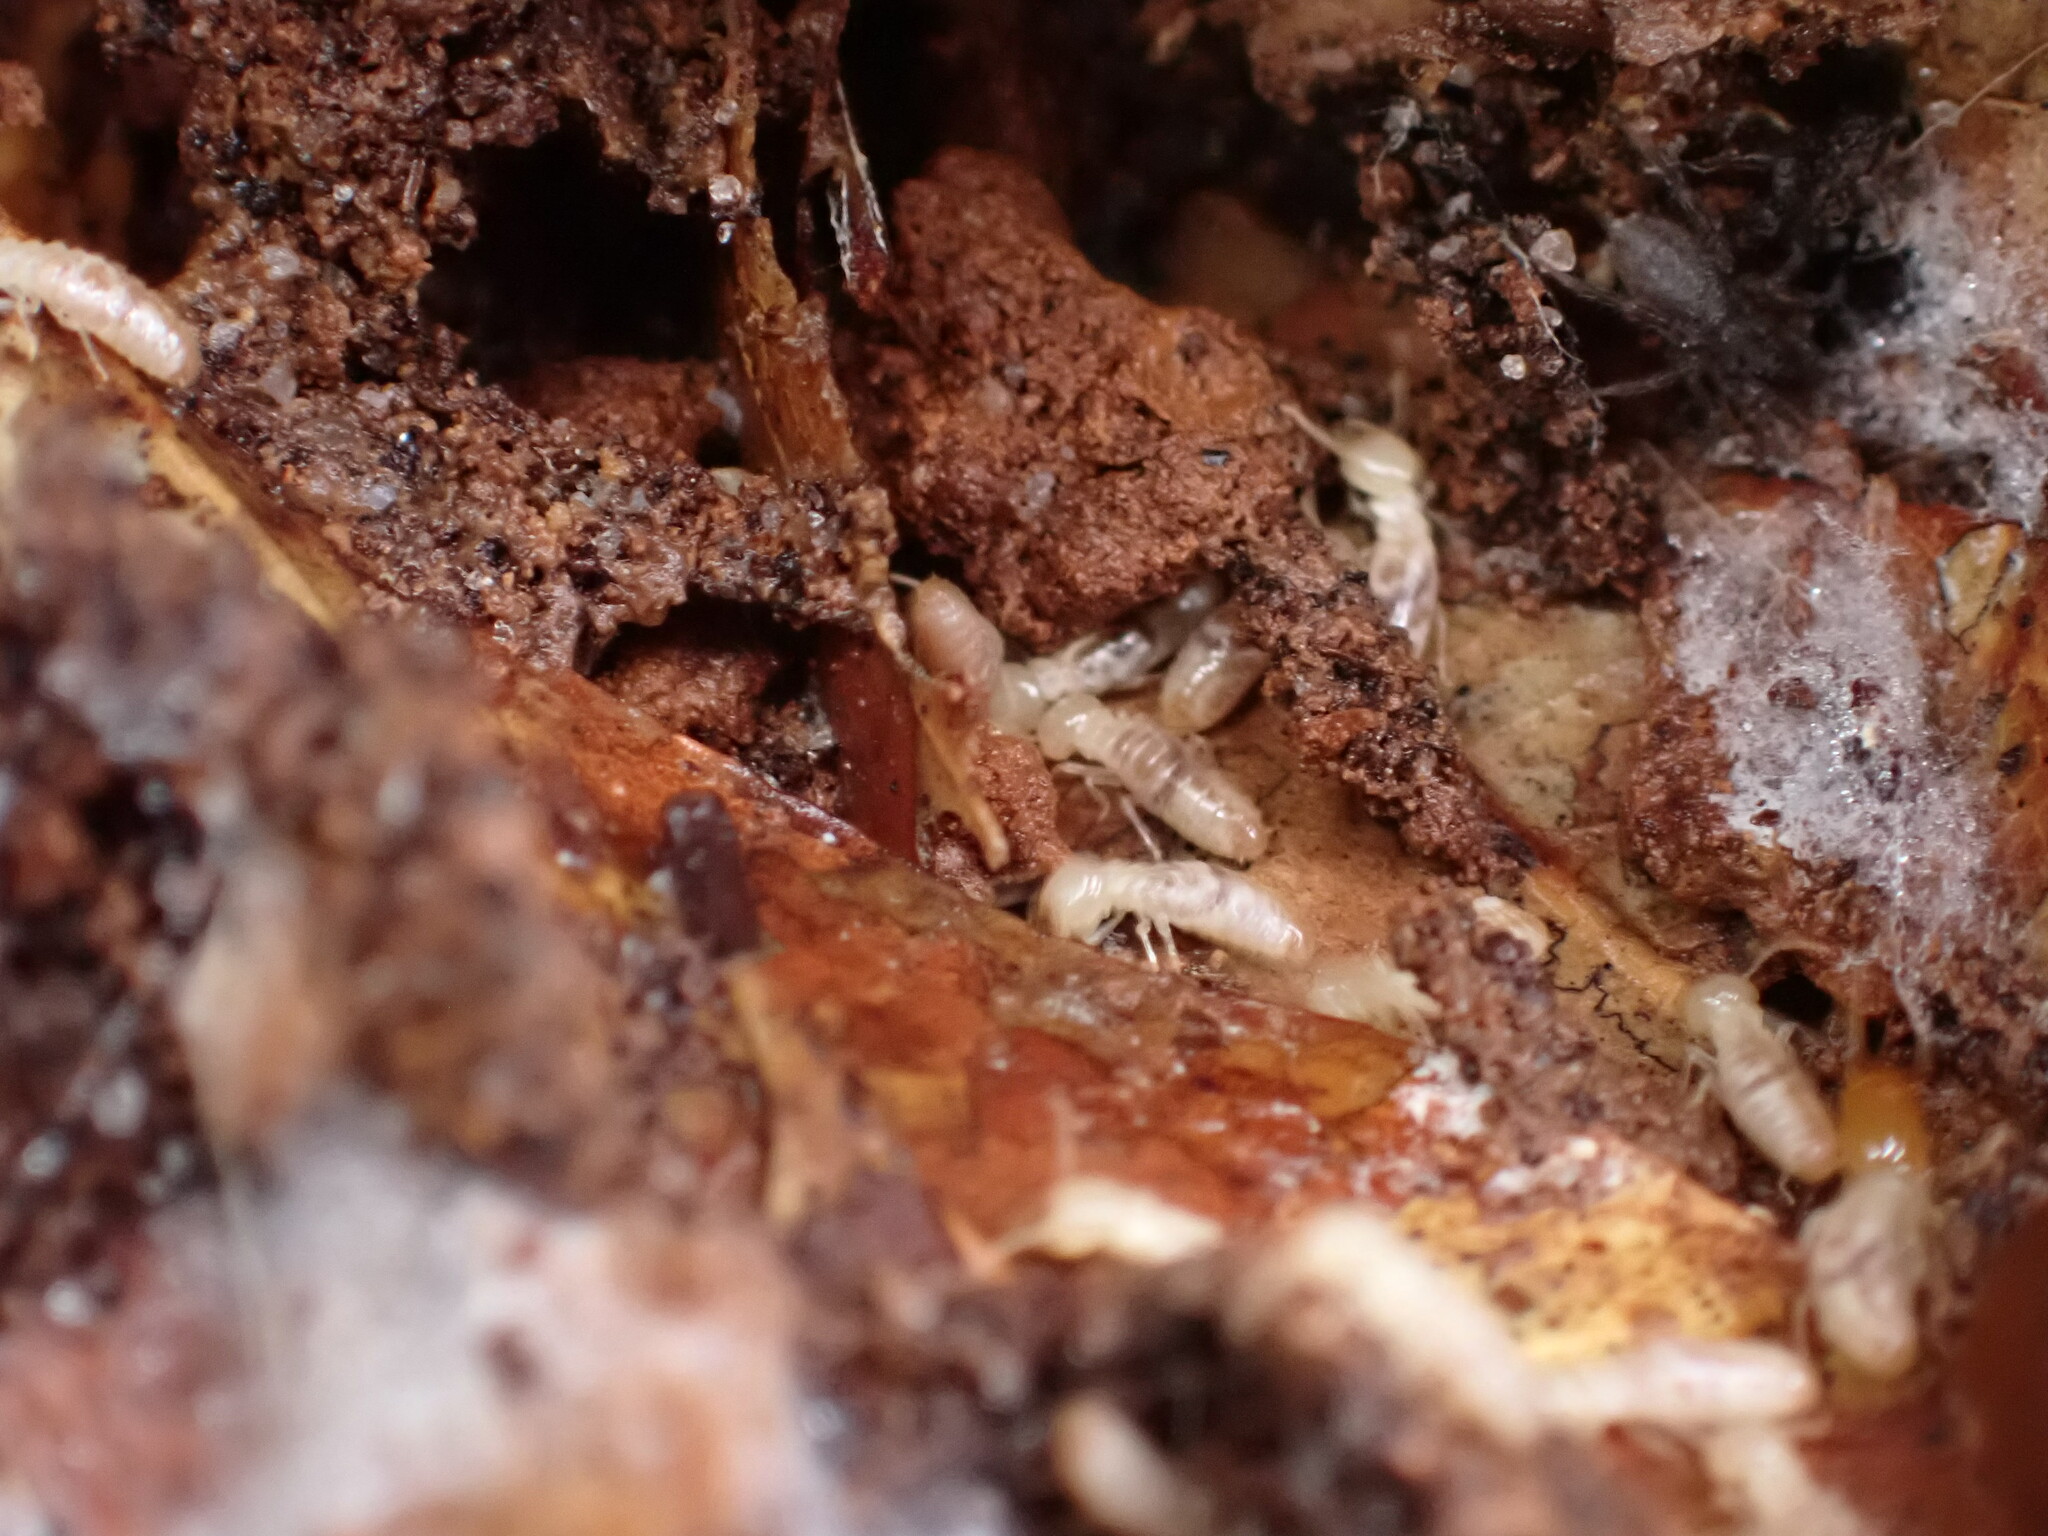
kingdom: Animalia
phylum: Arthropoda
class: Insecta
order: Blattodea
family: Rhinotermitidae
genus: Reticulitermes
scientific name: Reticulitermes flavipes
